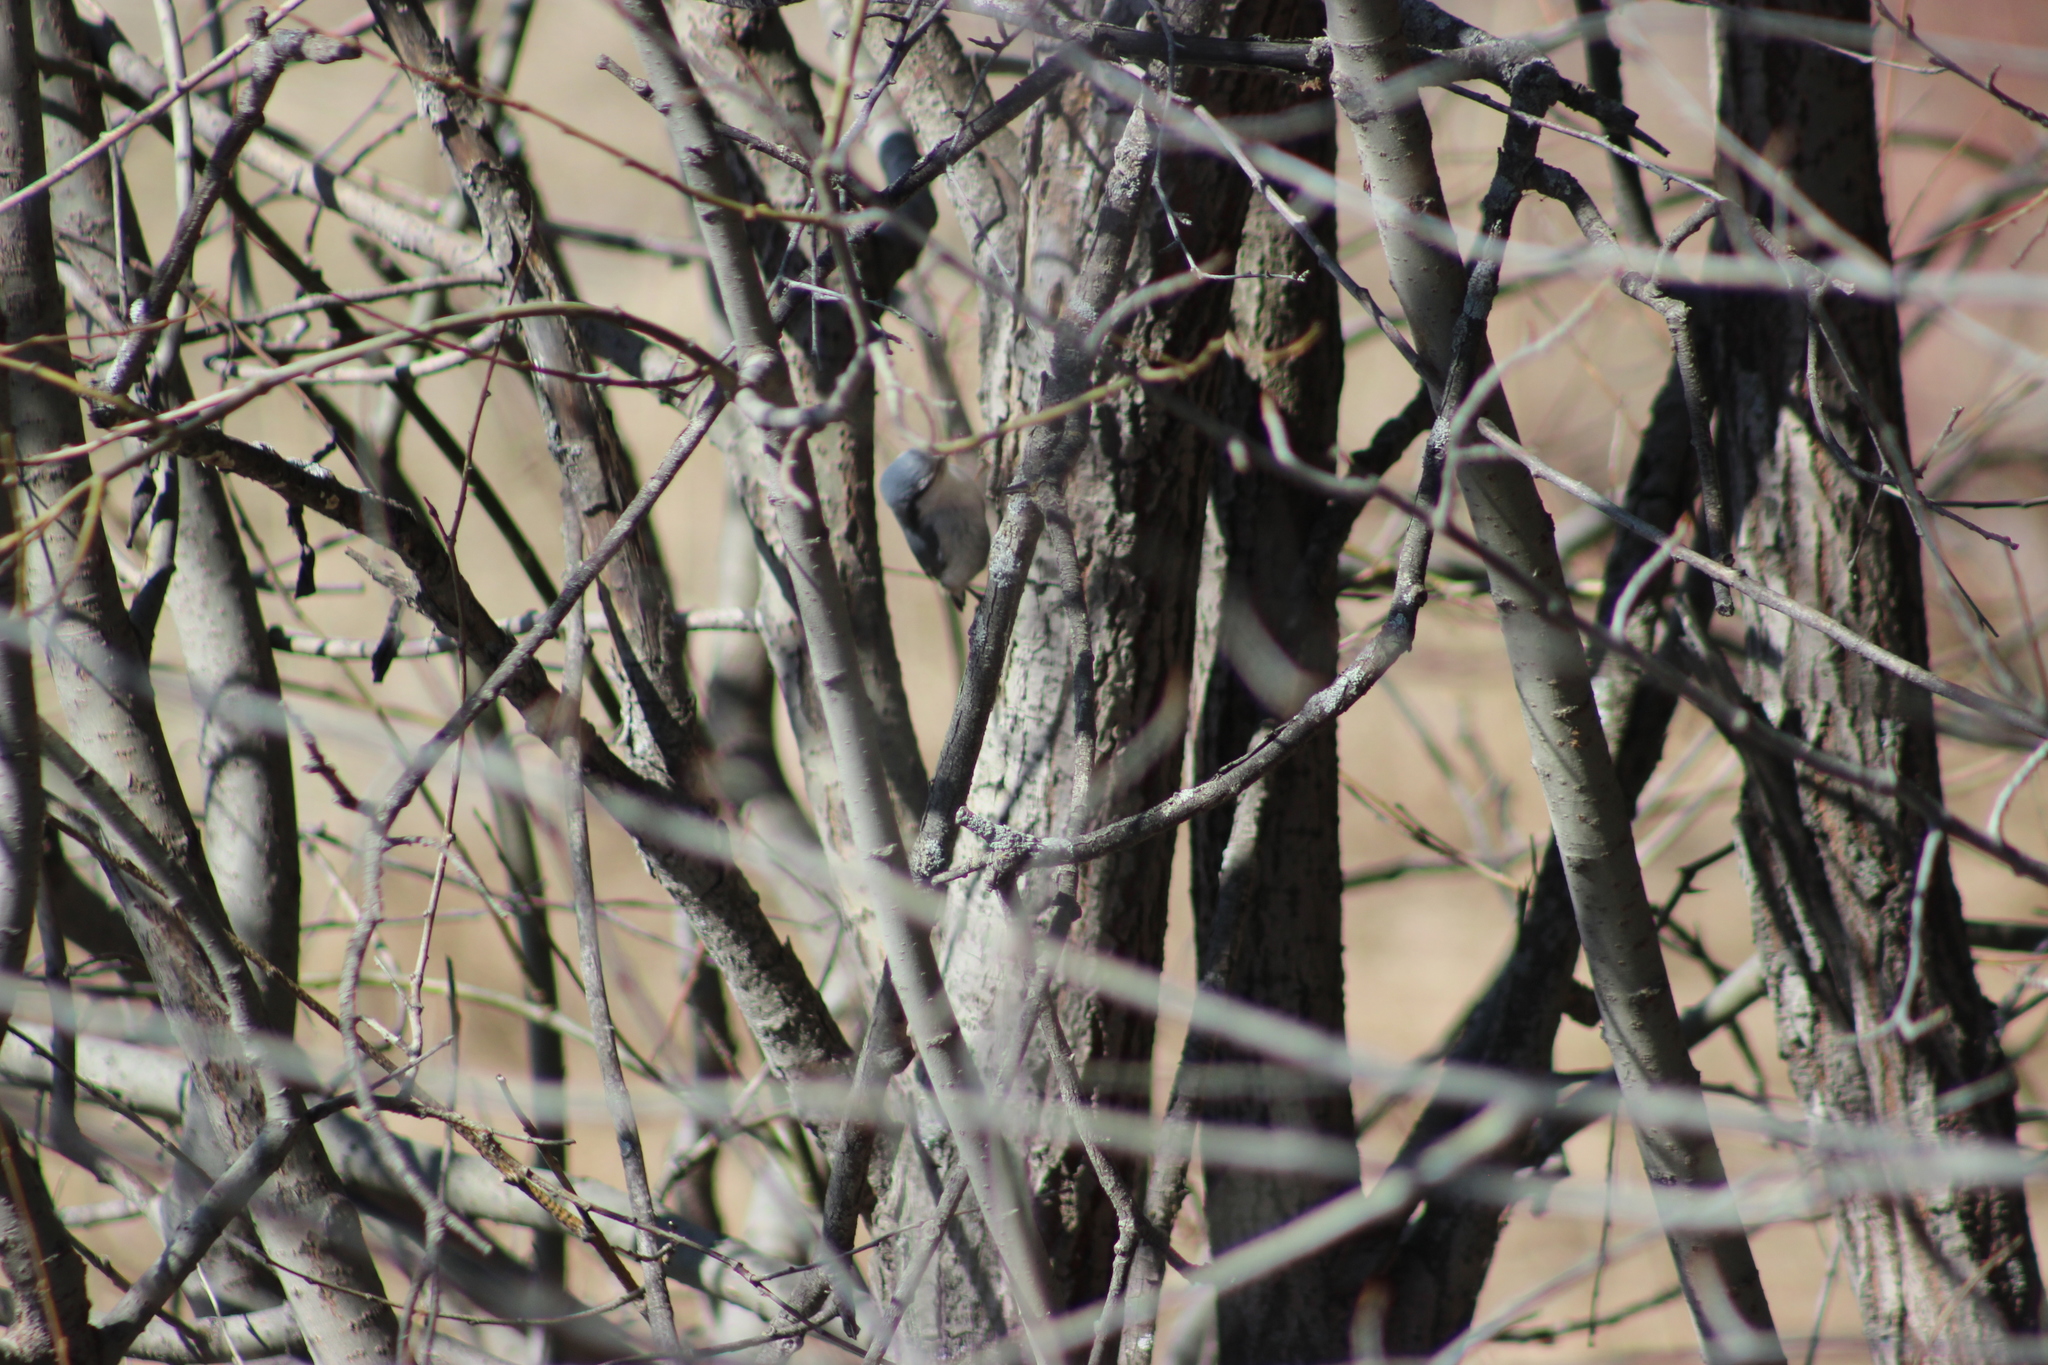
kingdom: Animalia
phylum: Chordata
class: Aves
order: Passeriformes
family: Sittidae
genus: Sitta
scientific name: Sitta europaea
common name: Eurasian nuthatch
